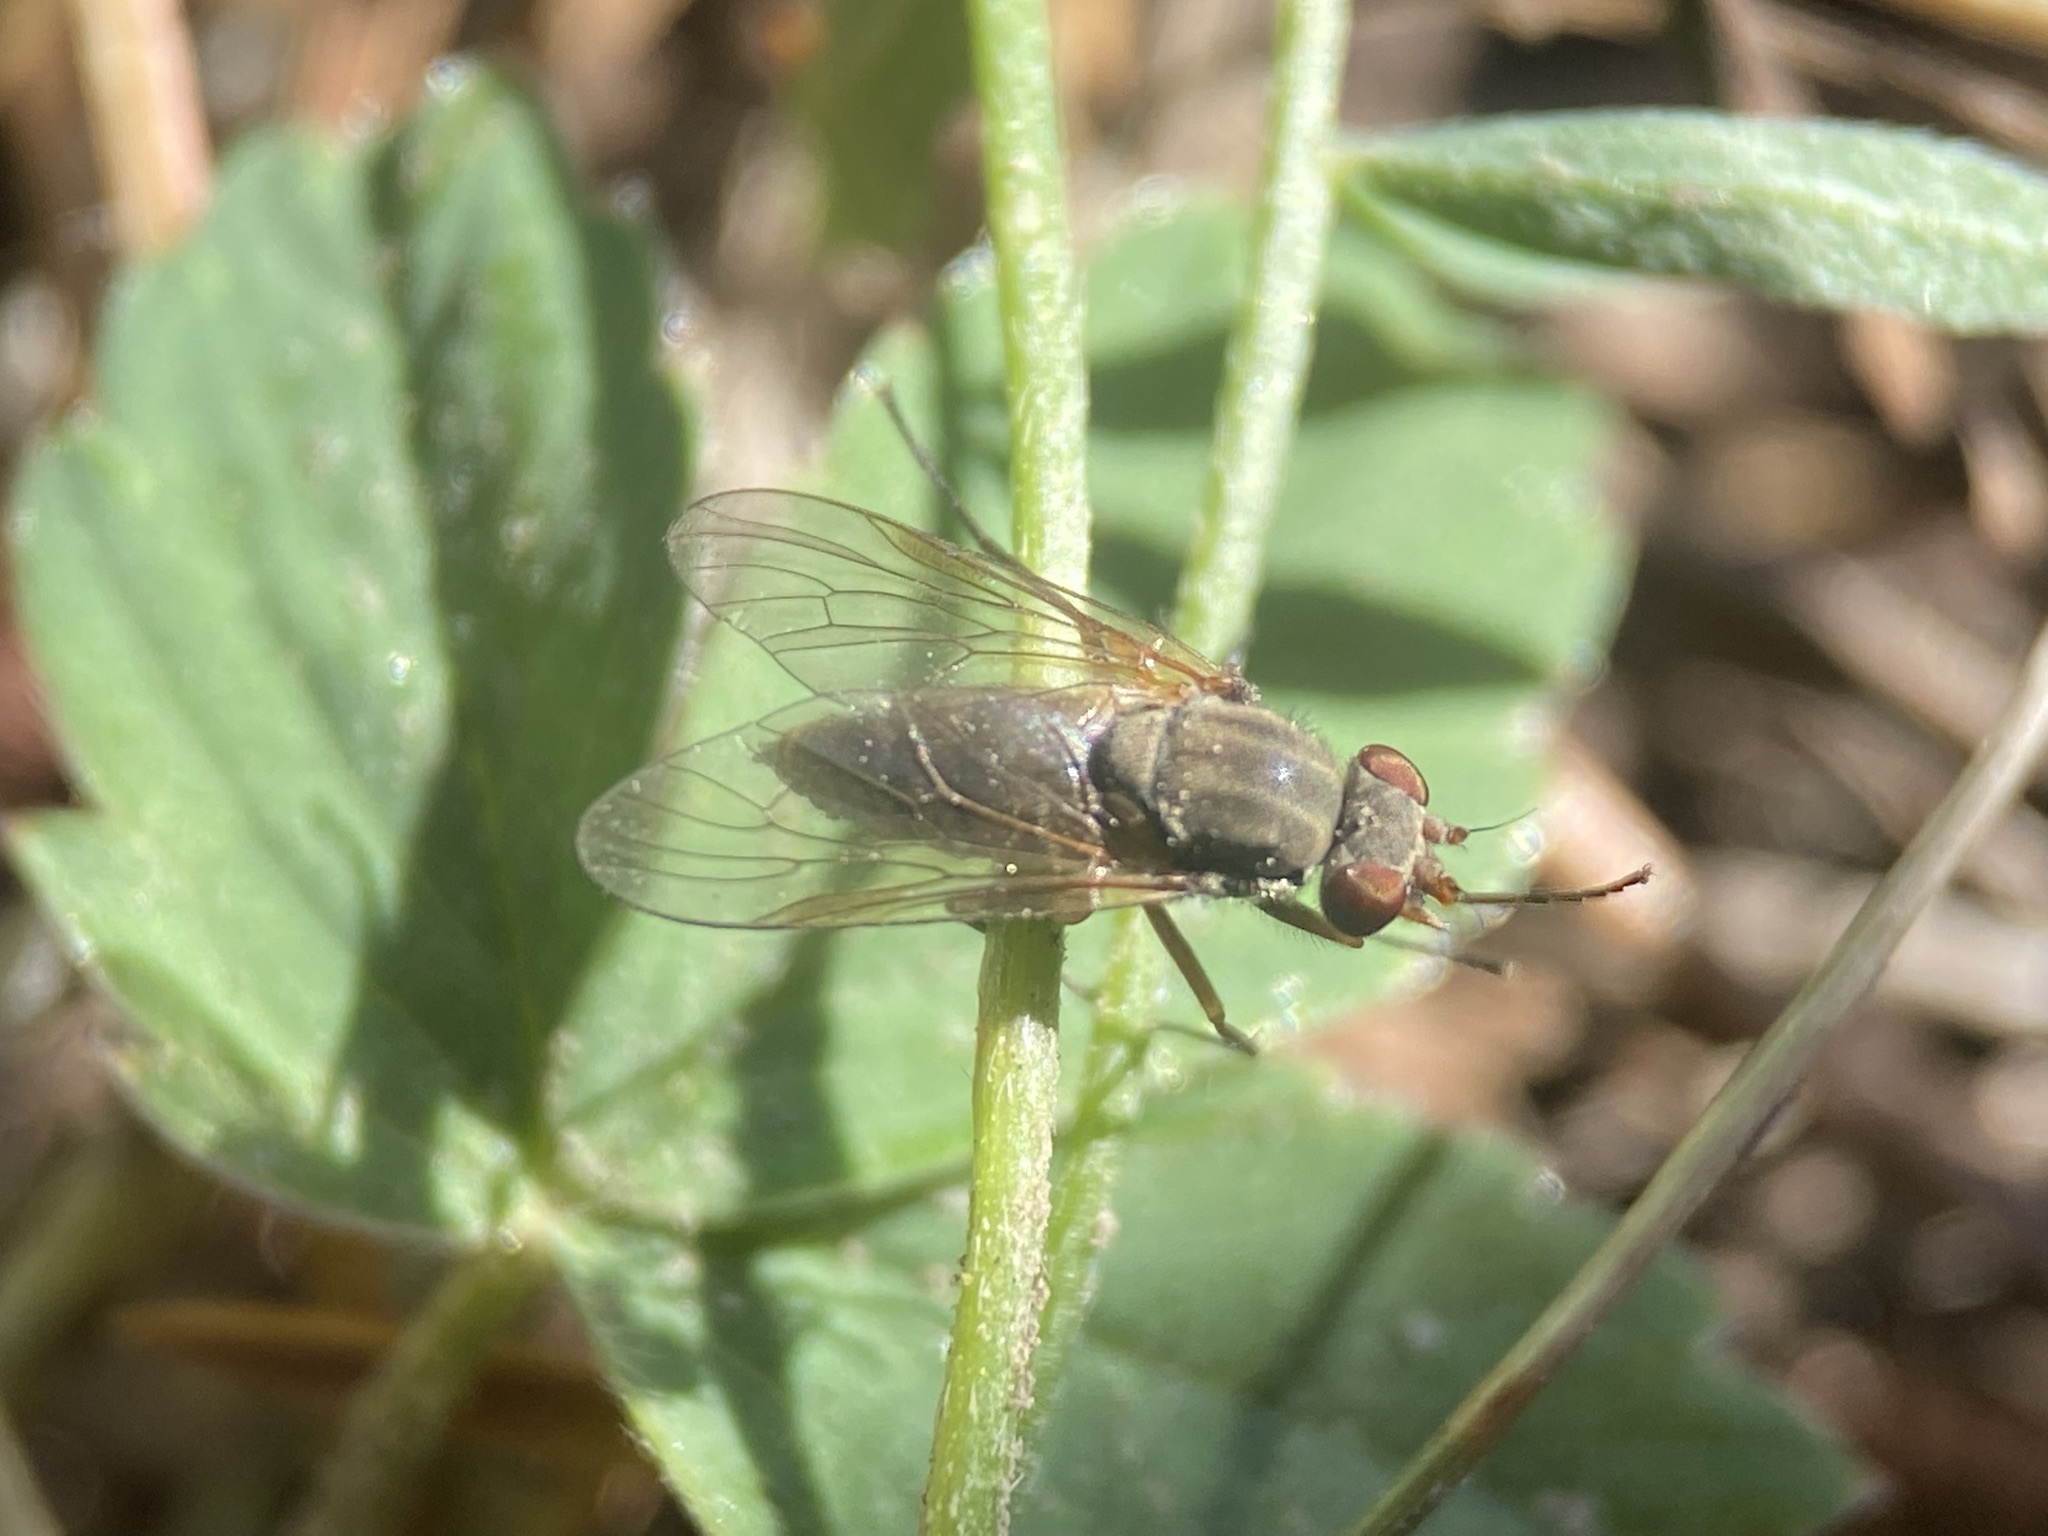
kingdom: Animalia
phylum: Arthropoda
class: Insecta
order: Diptera
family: Rhagionidae
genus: Symphoromyia
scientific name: Symphoromyia
